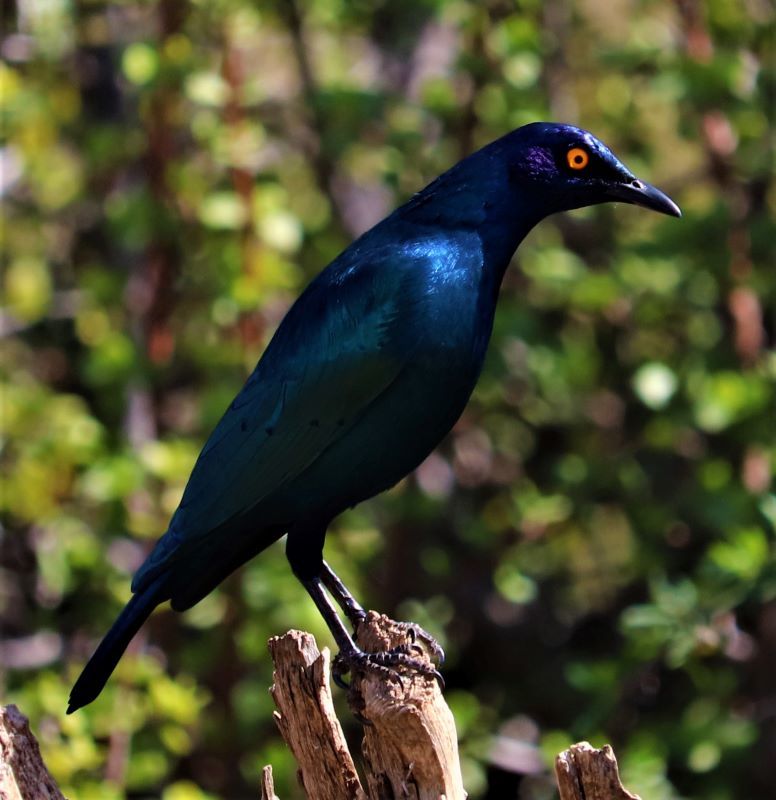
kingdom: Animalia
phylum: Chordata
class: Aves
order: Passeriformes
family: Sturnidae
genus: Lamprotornis
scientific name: Lamprotornis nitens
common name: Cape starling
